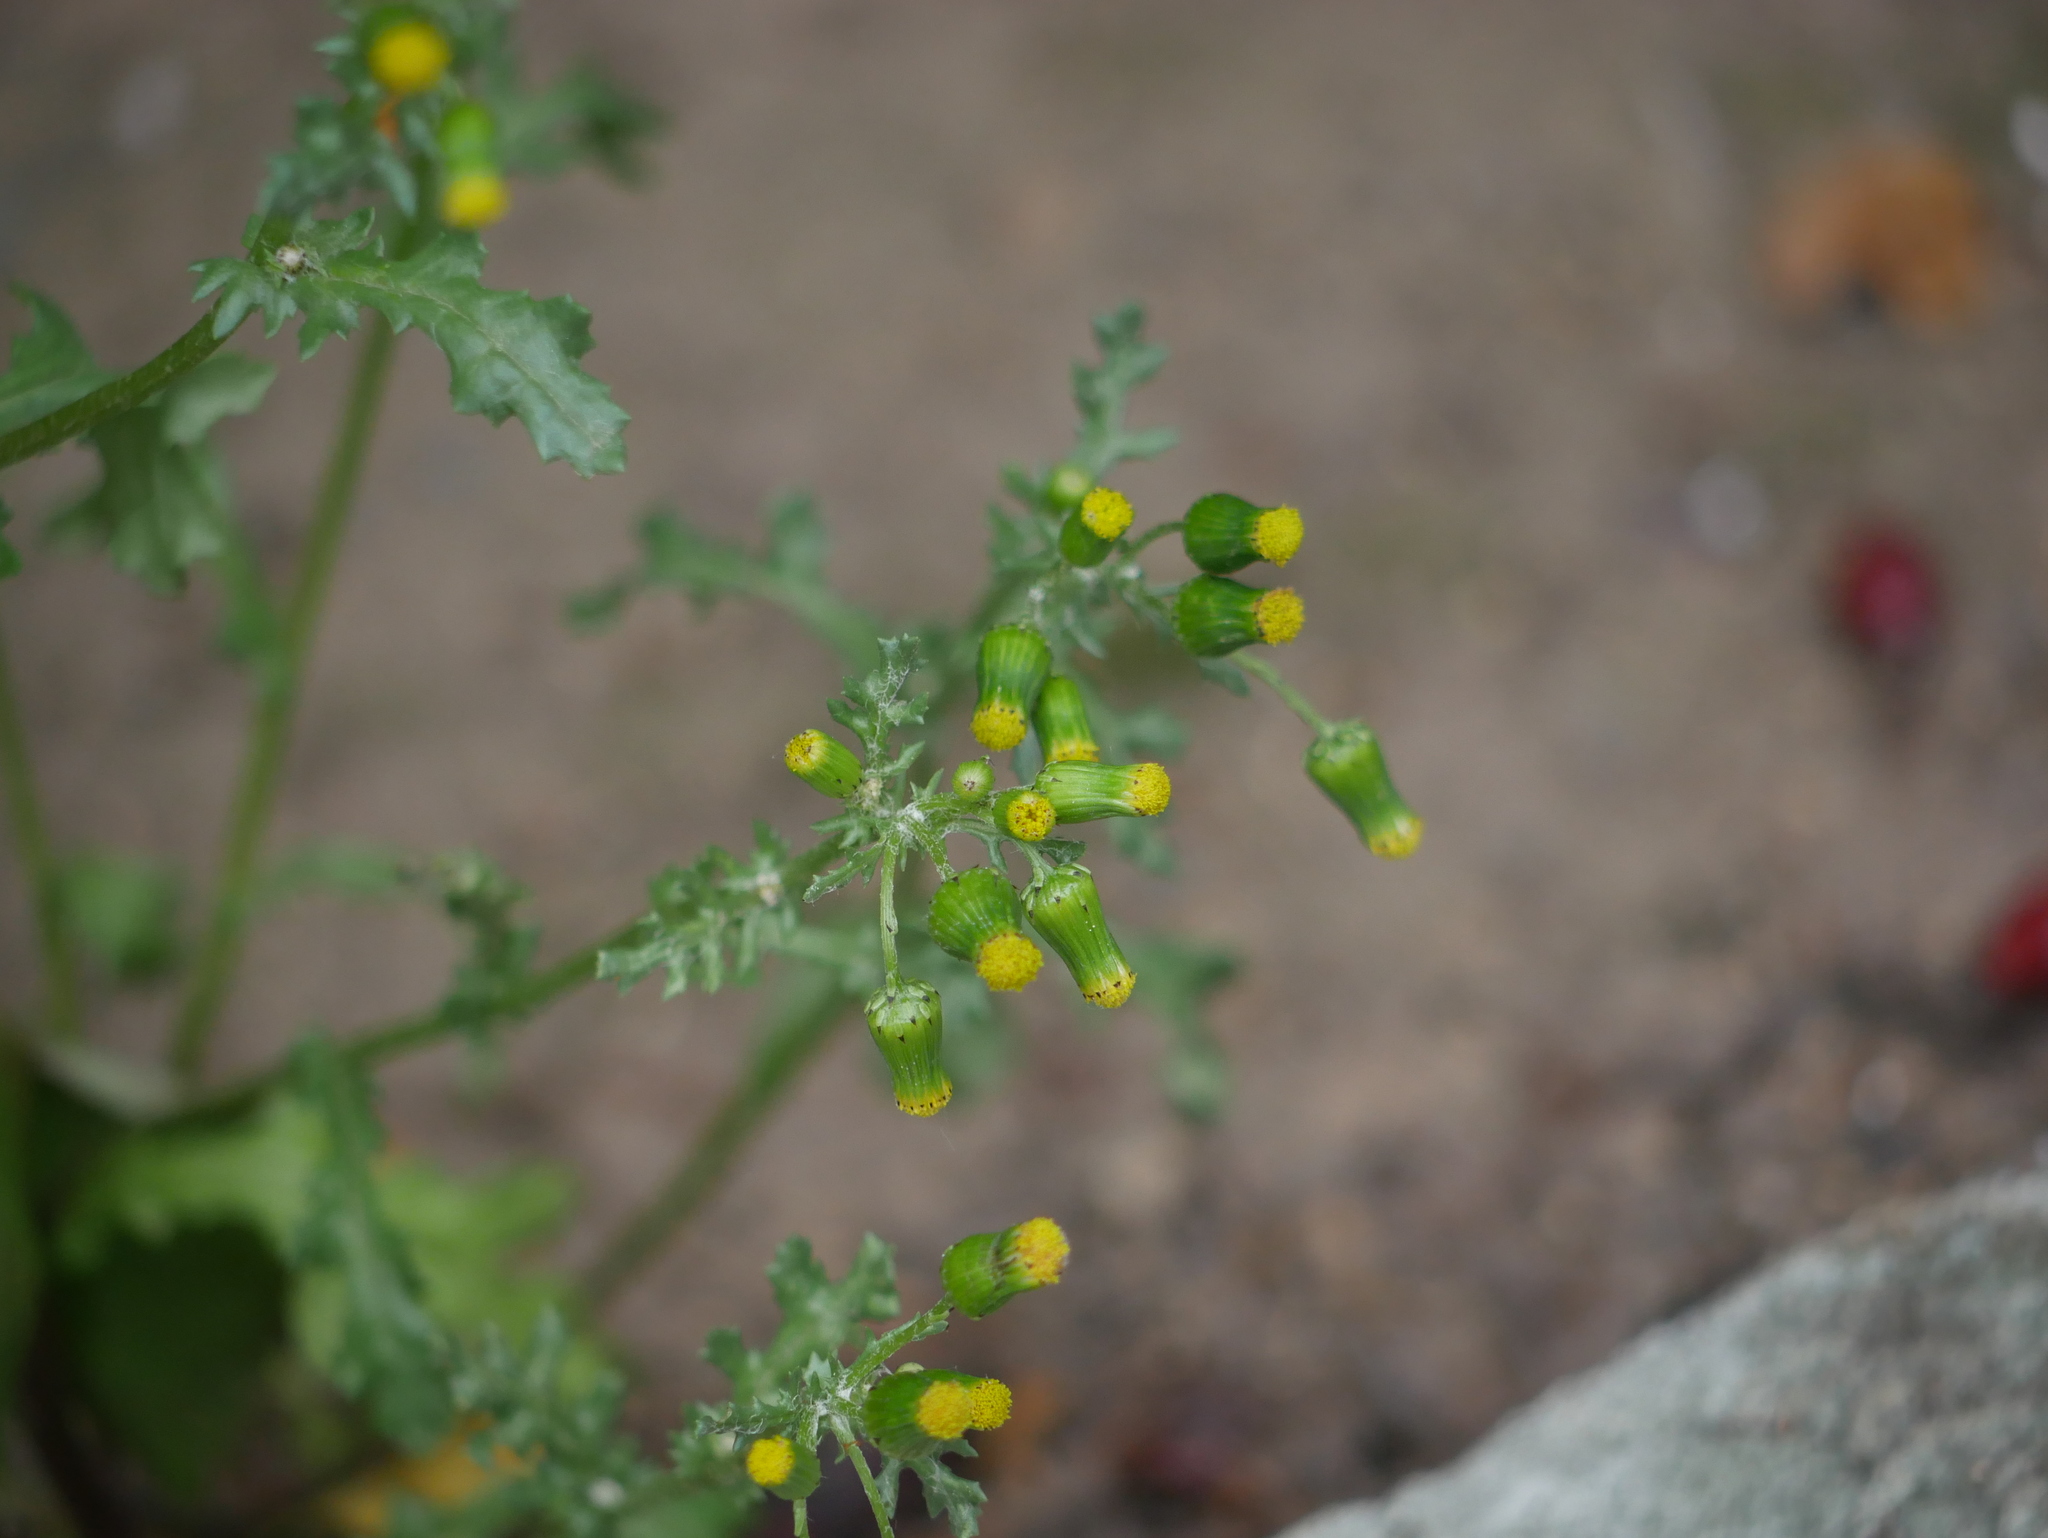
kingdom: Plantae
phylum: Tracheophyta
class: Magnoliopsida
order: Asterales
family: Asteraceae
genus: Senecio
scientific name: Senecio vulgaris
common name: Old-man-in-the-spring
